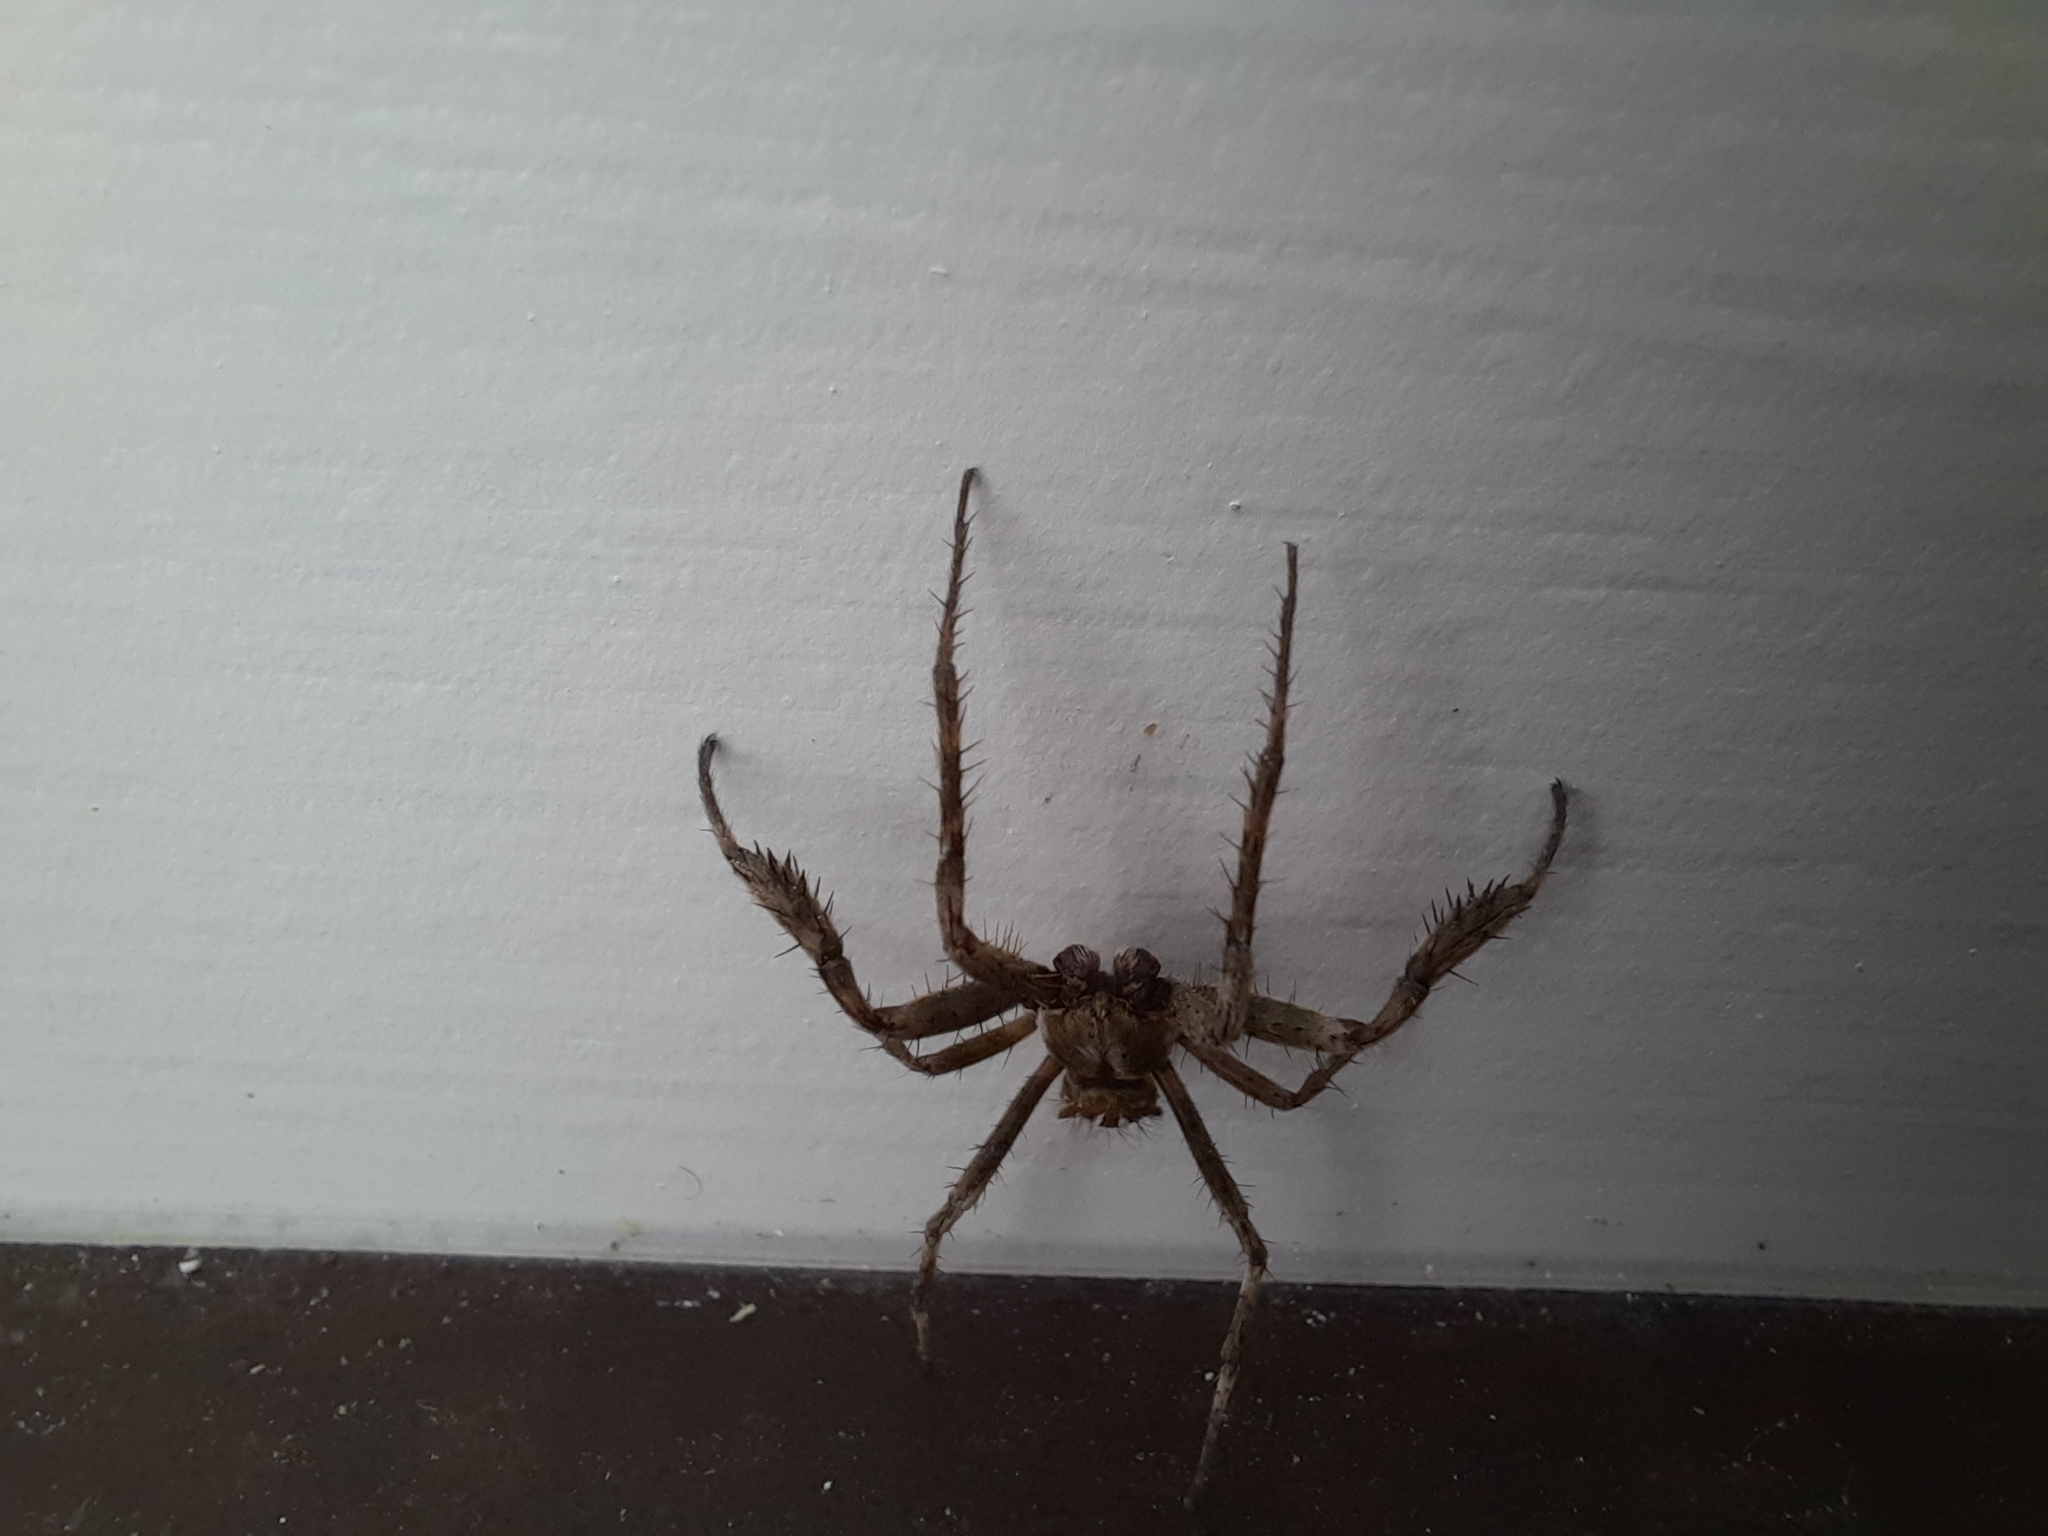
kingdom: Animalia
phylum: Arthropoda
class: Arachnida
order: Araneae
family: Araneidae
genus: Backobourkia
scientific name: Backobourkia brouni
